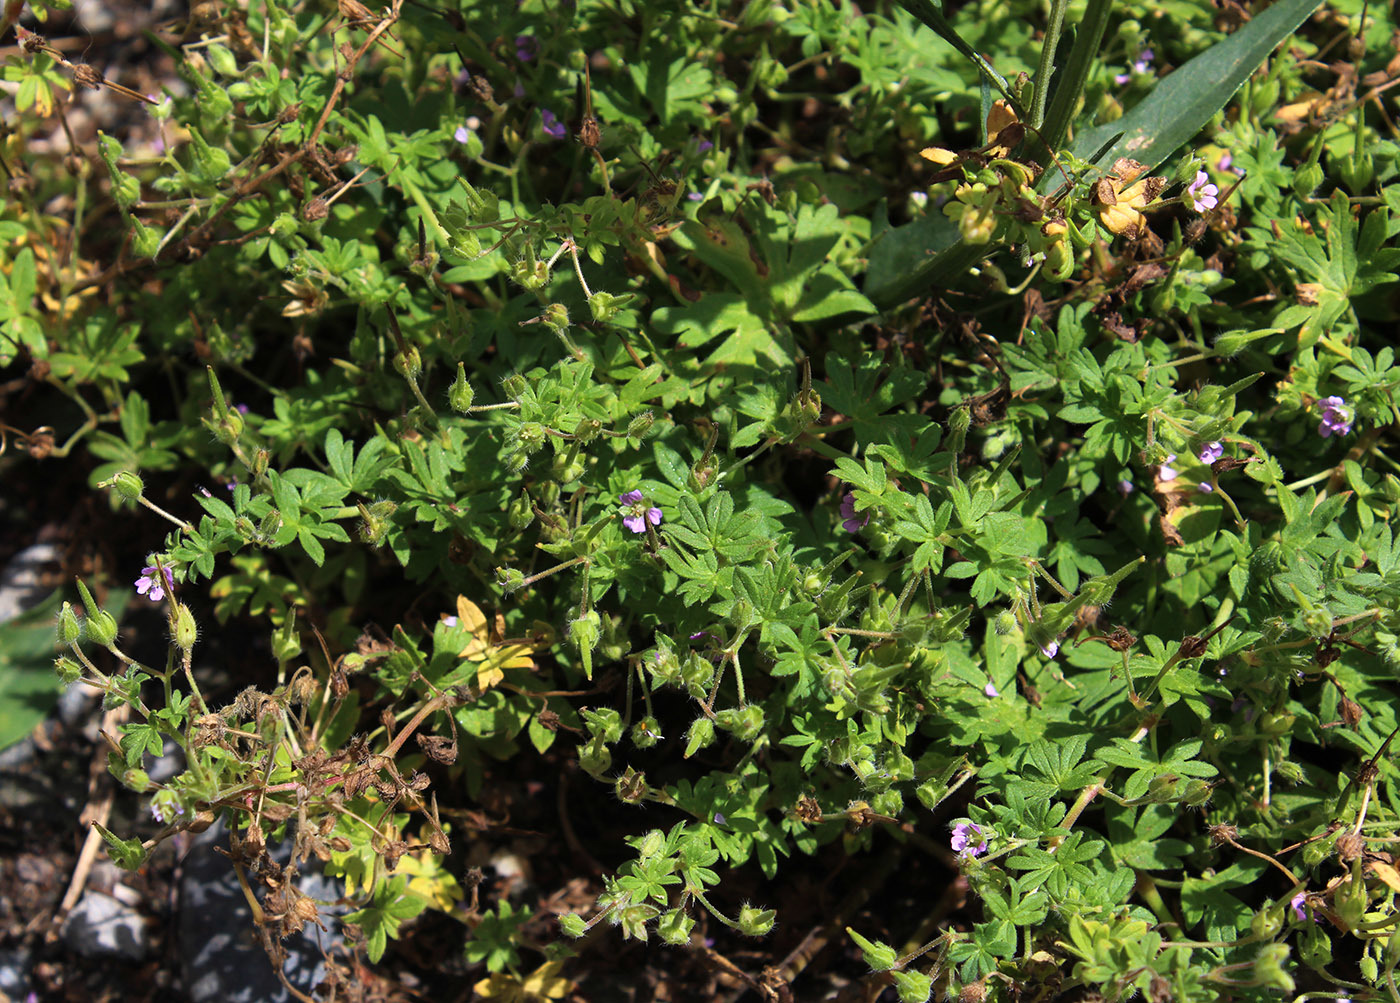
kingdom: Plantae
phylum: Tracheophyta
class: Magnoliopsida
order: Geraniales
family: Geraniaceae
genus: Geranium
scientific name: Geranium pusillum
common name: Small geranium
